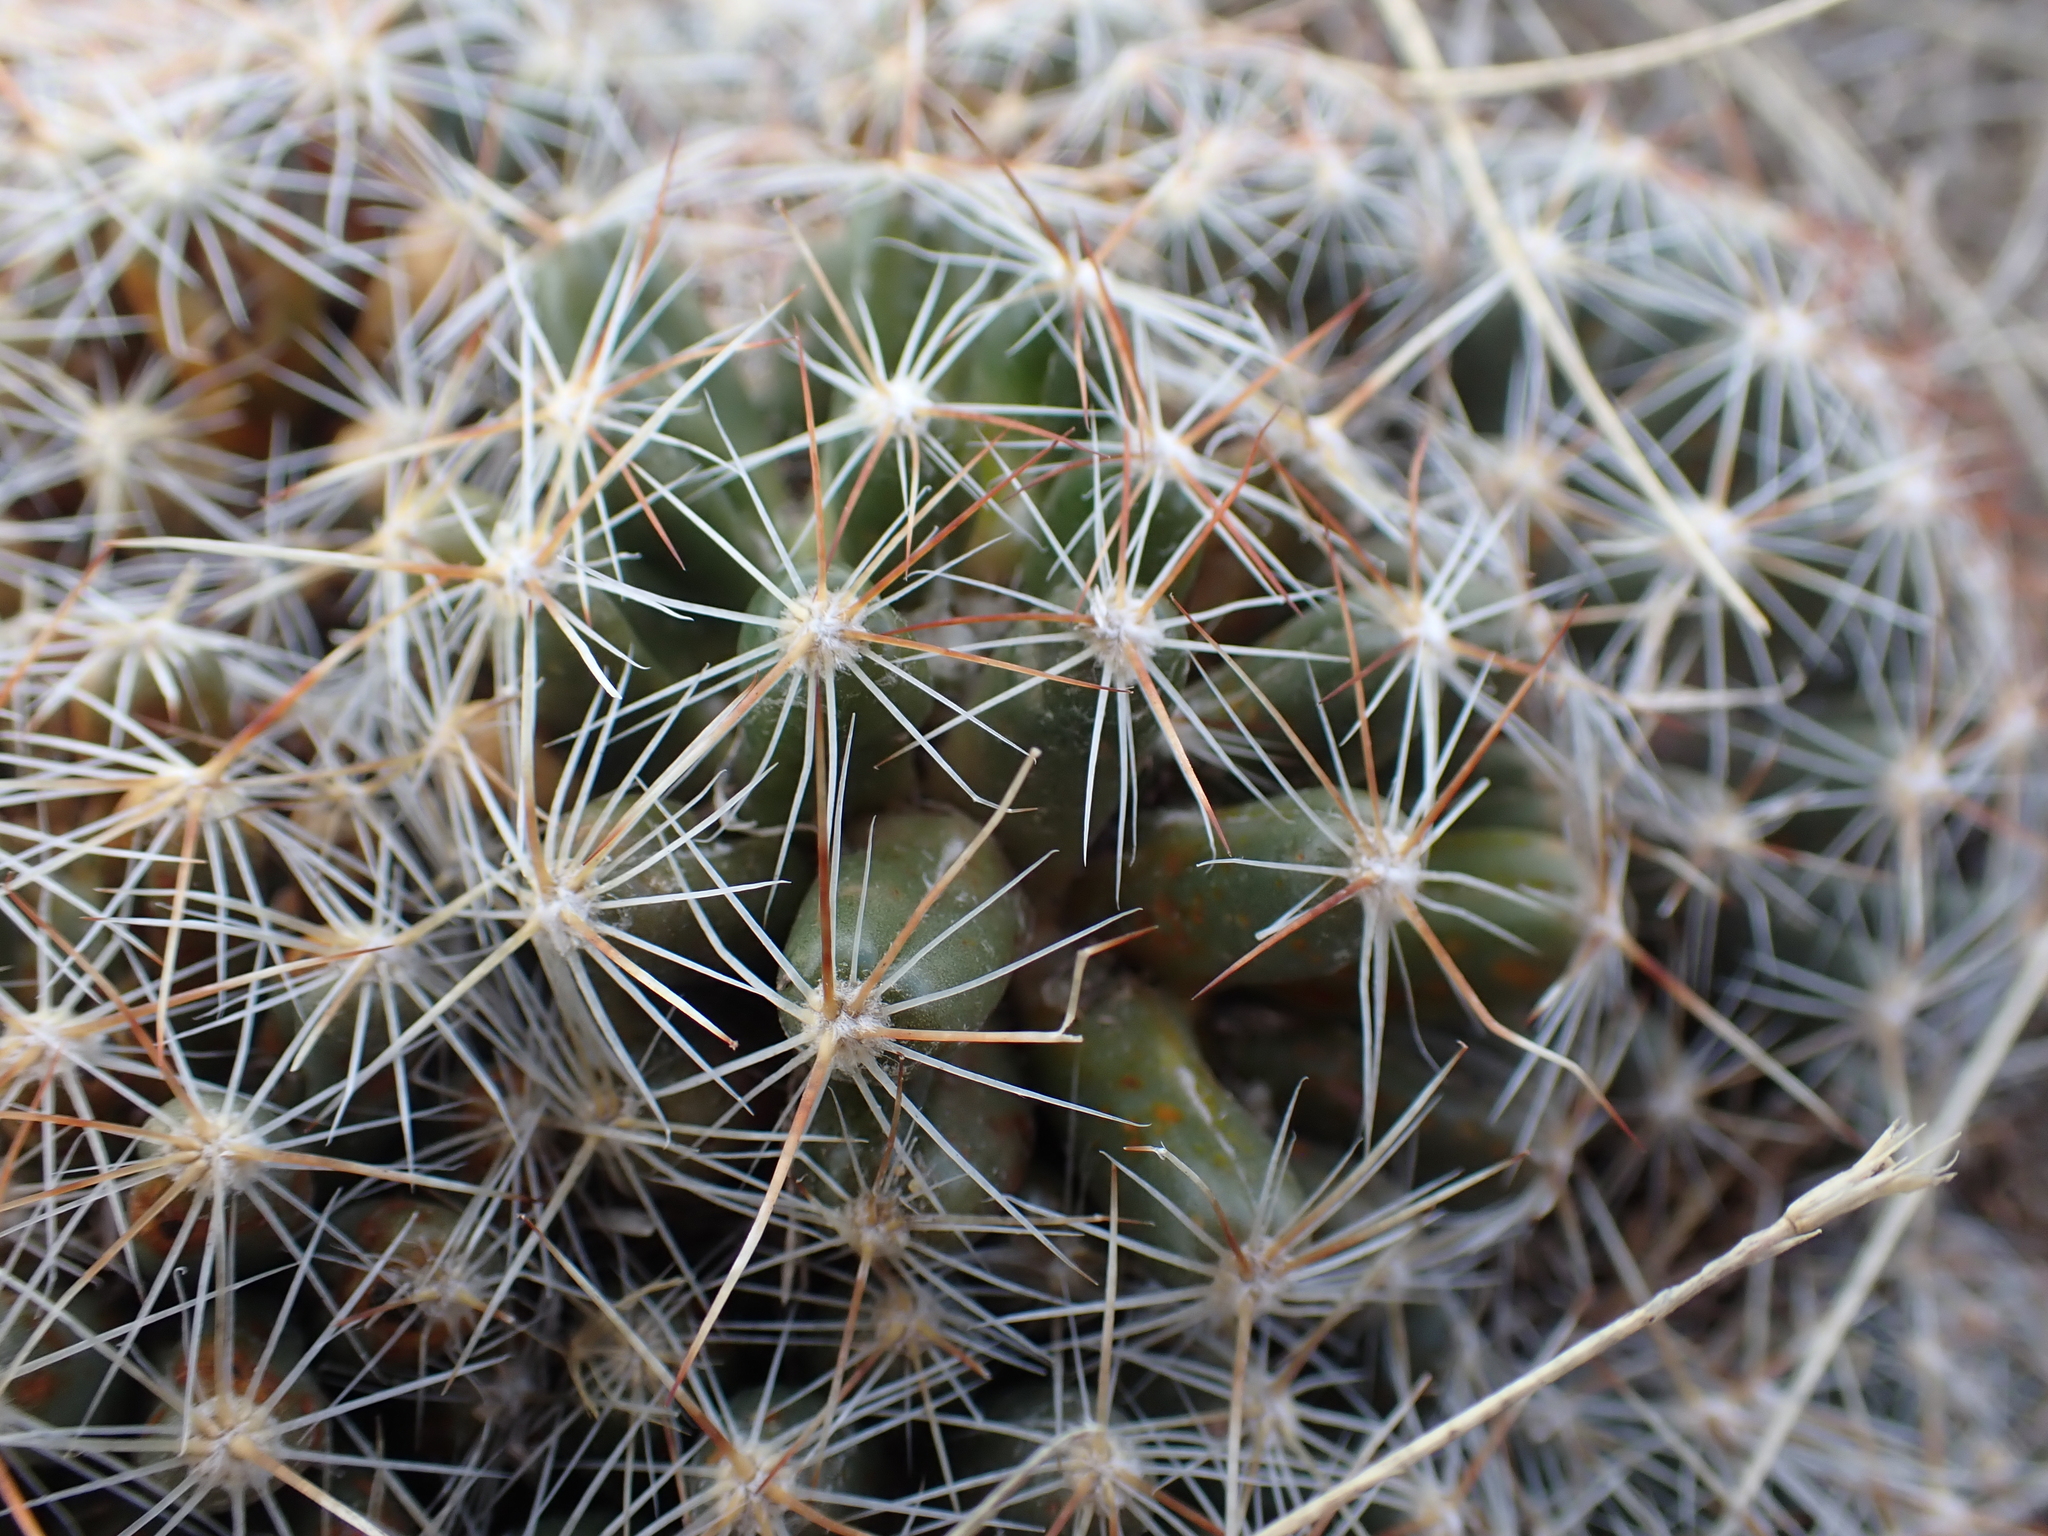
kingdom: Plantae
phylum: Tracheophyta
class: Magnoliopsida
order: Caryophyllales
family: Cactaceae
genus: Pelecyphora
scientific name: Pelecyphora vivipara
